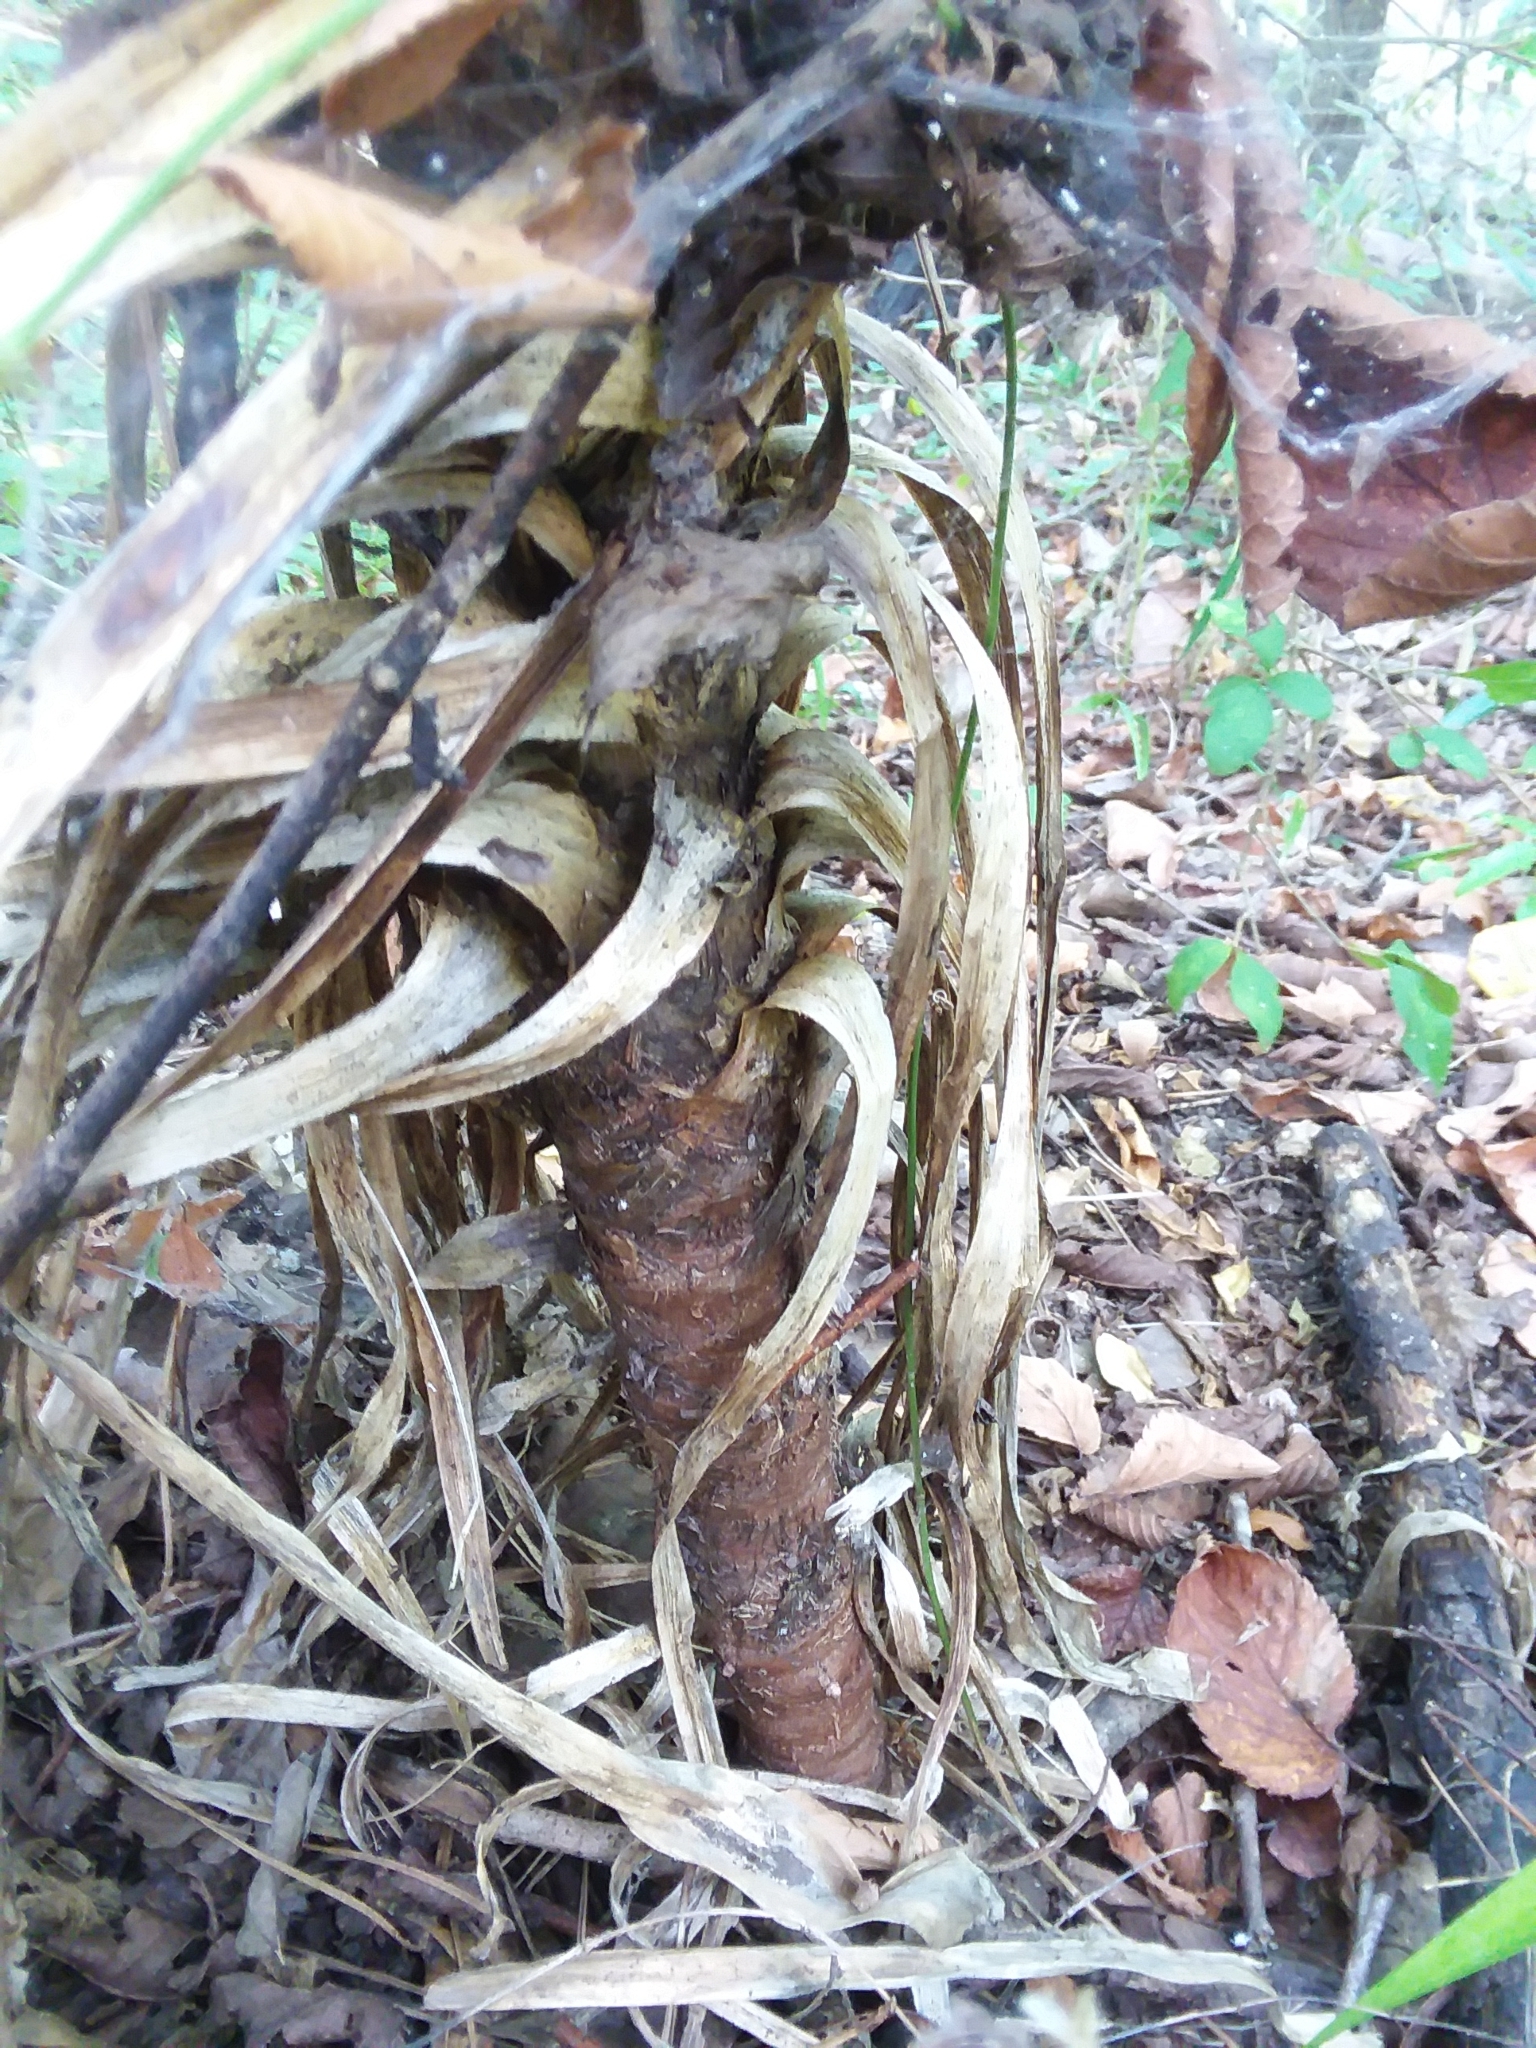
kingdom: Plantae
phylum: Tracheophyta
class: Liliopsida
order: Asparagales
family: Asparagaceae
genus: Yucca
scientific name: Yucca gloriosa
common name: Spanish-dagger
